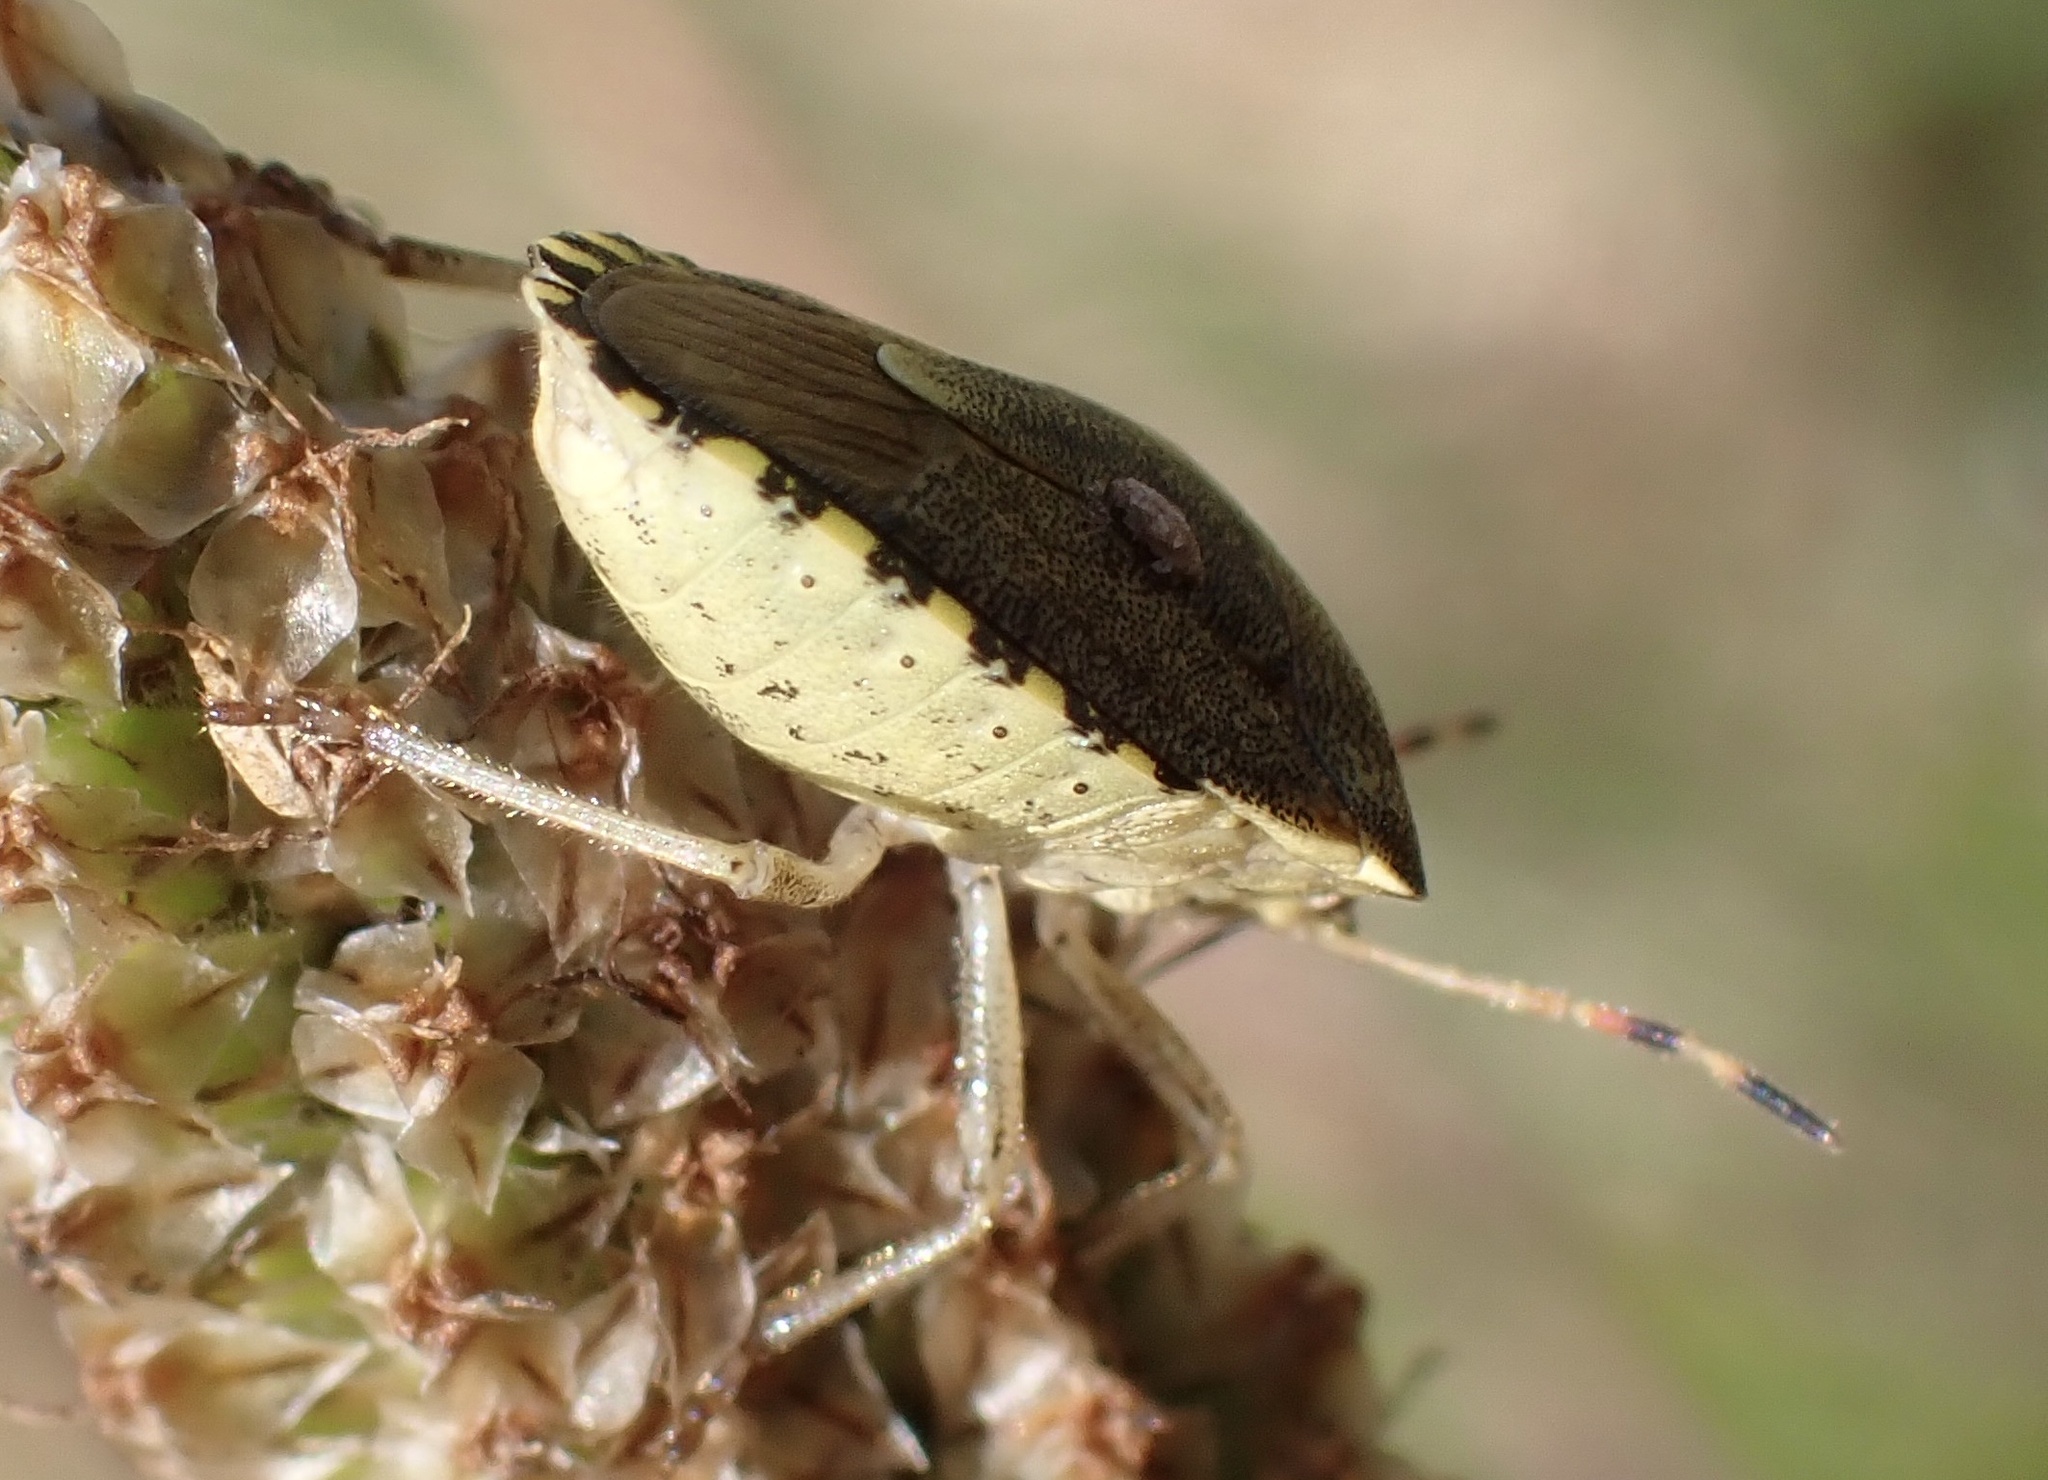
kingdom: Animalia
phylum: Arthropoda
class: Insecta
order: Hemiptera
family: Pentatomidae
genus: Holcostethus
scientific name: Holcostethus strictus
